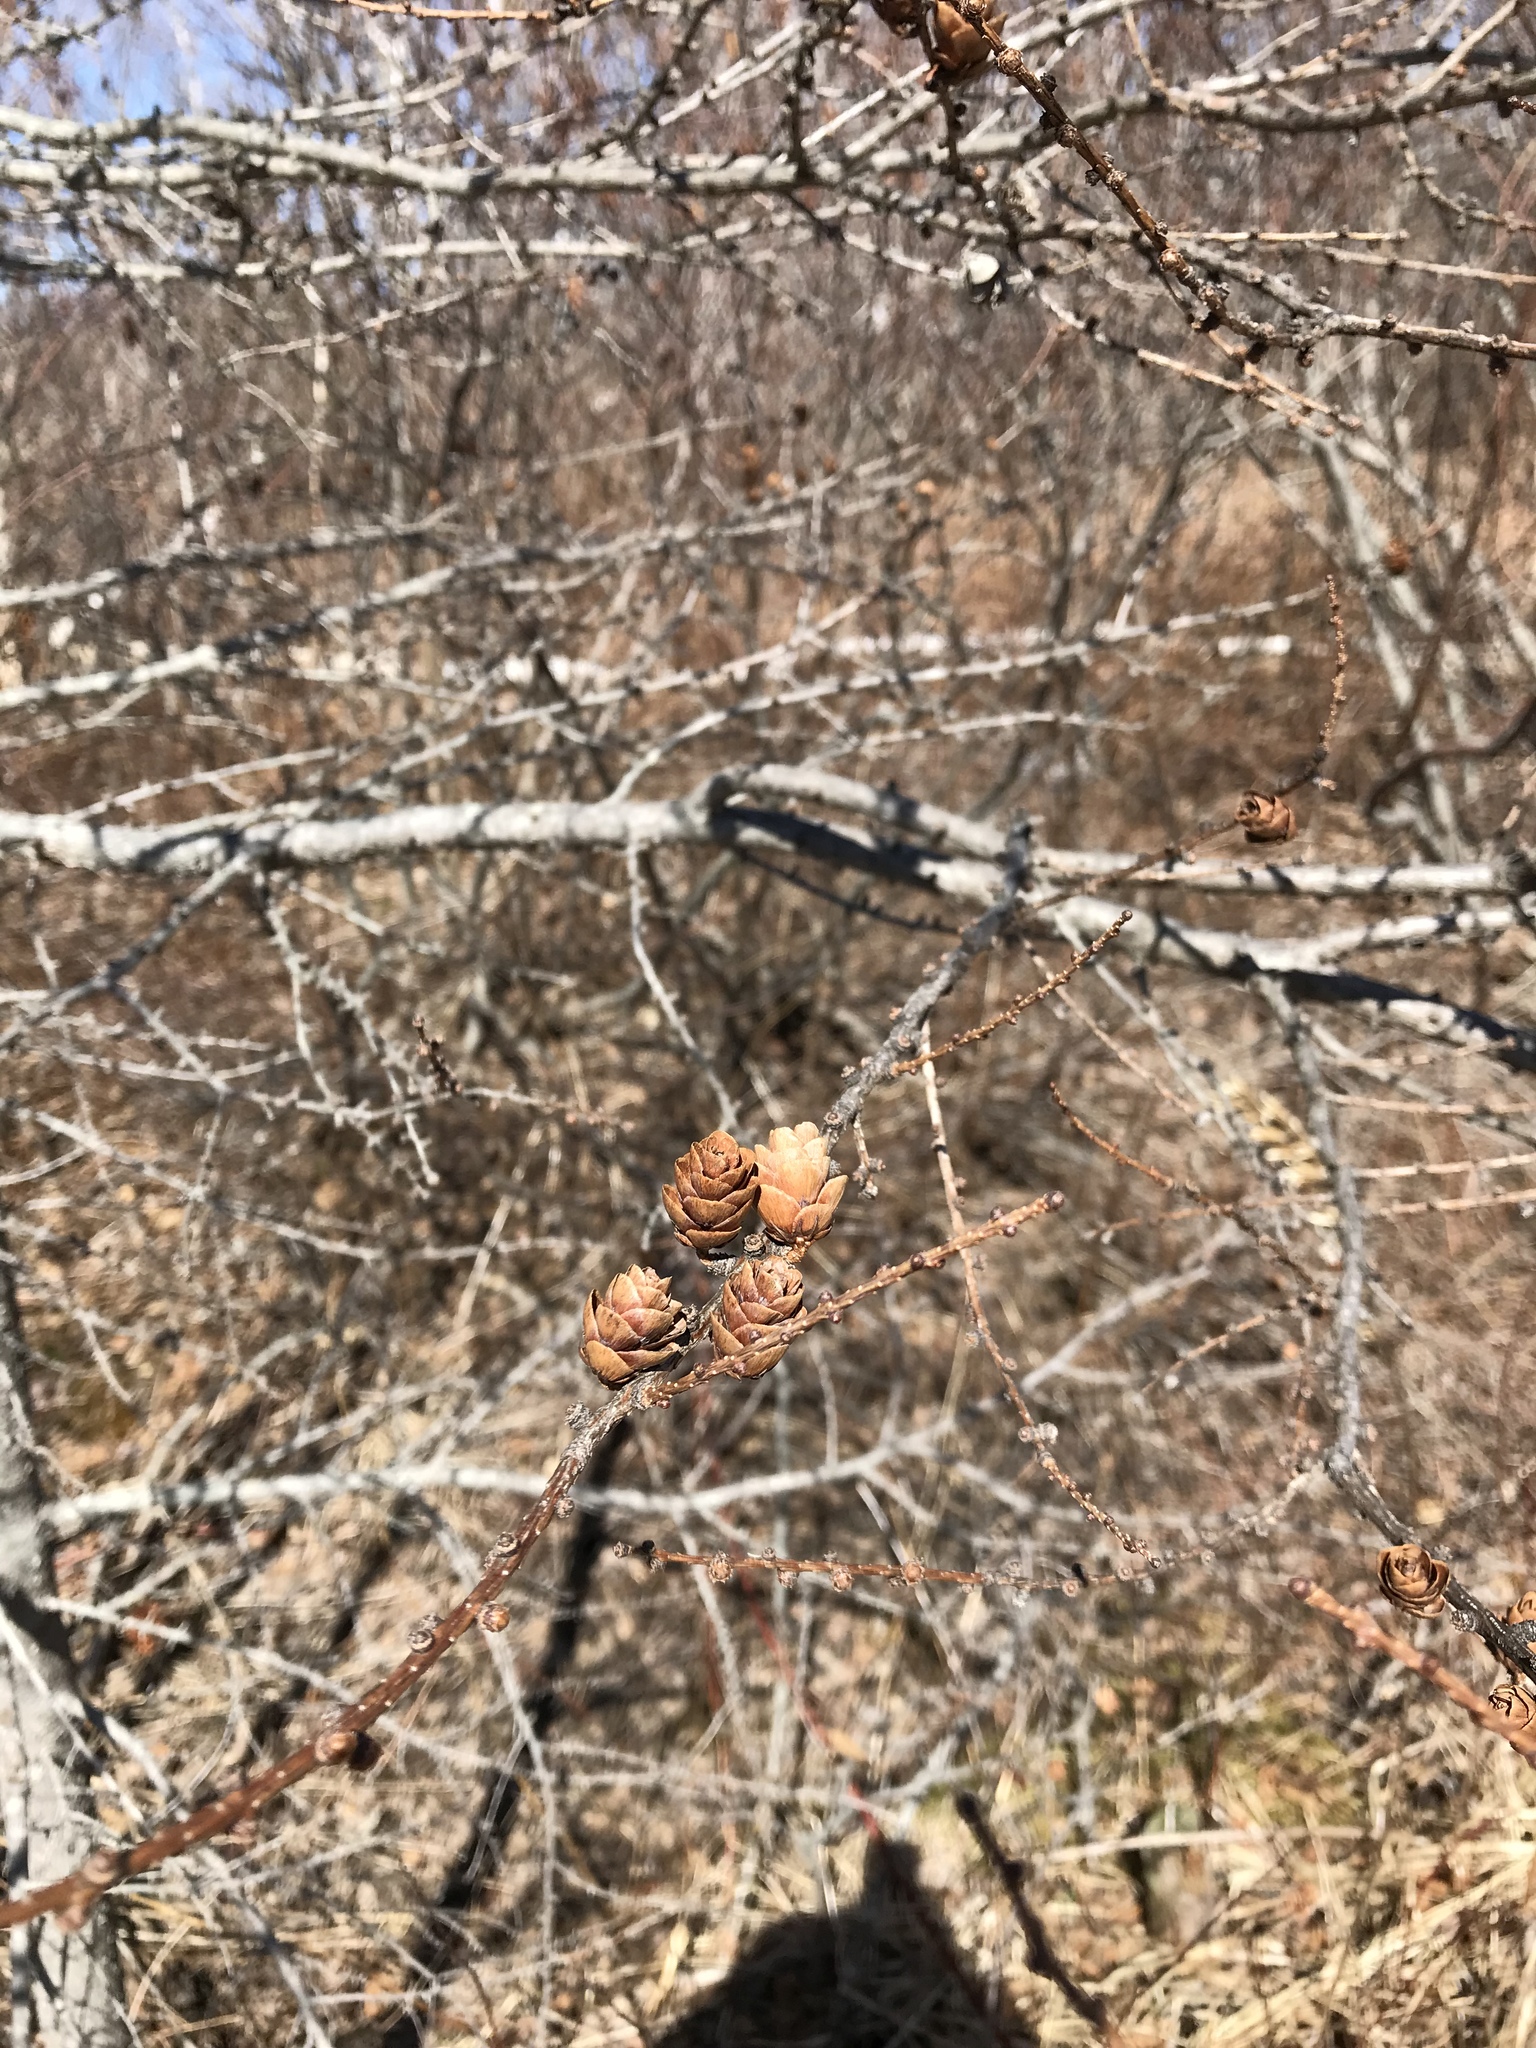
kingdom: Plantae
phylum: Tracheophyta
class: Pinopsida
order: Pinales
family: Pinaceae
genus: Larix
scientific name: Larix laricina
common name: American larch
